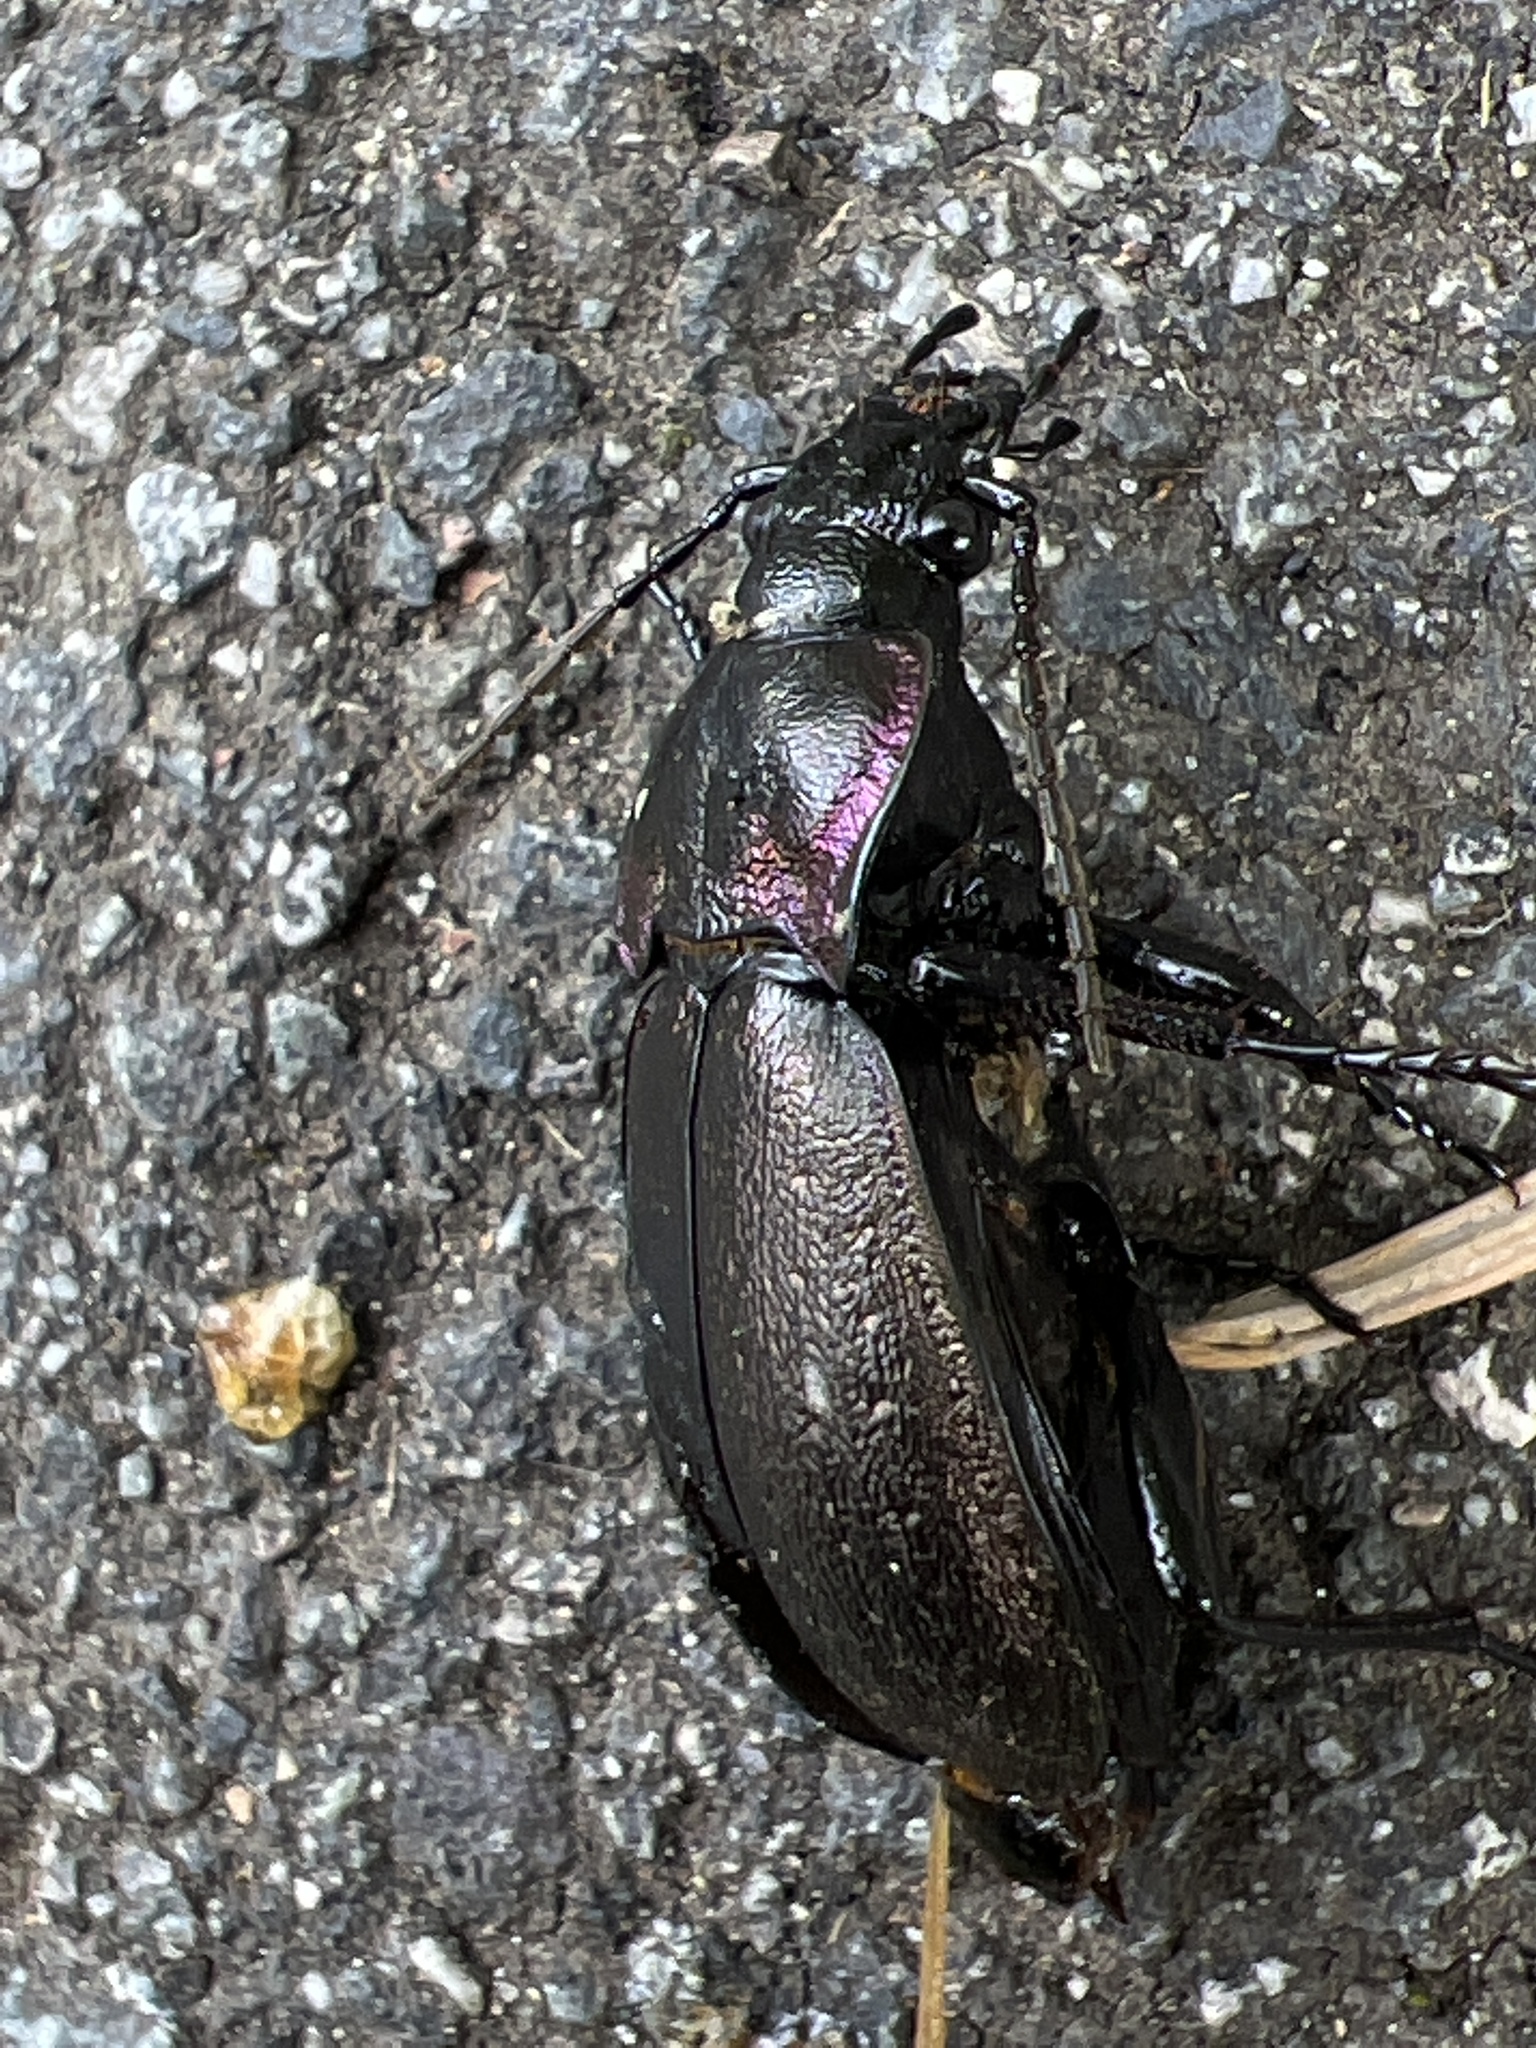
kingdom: Animalia
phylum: Arthropoda
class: Insecta
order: Coleoptera
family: Carabidae
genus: Carabus
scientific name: Carabus nemoralis
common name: European ground beetle
